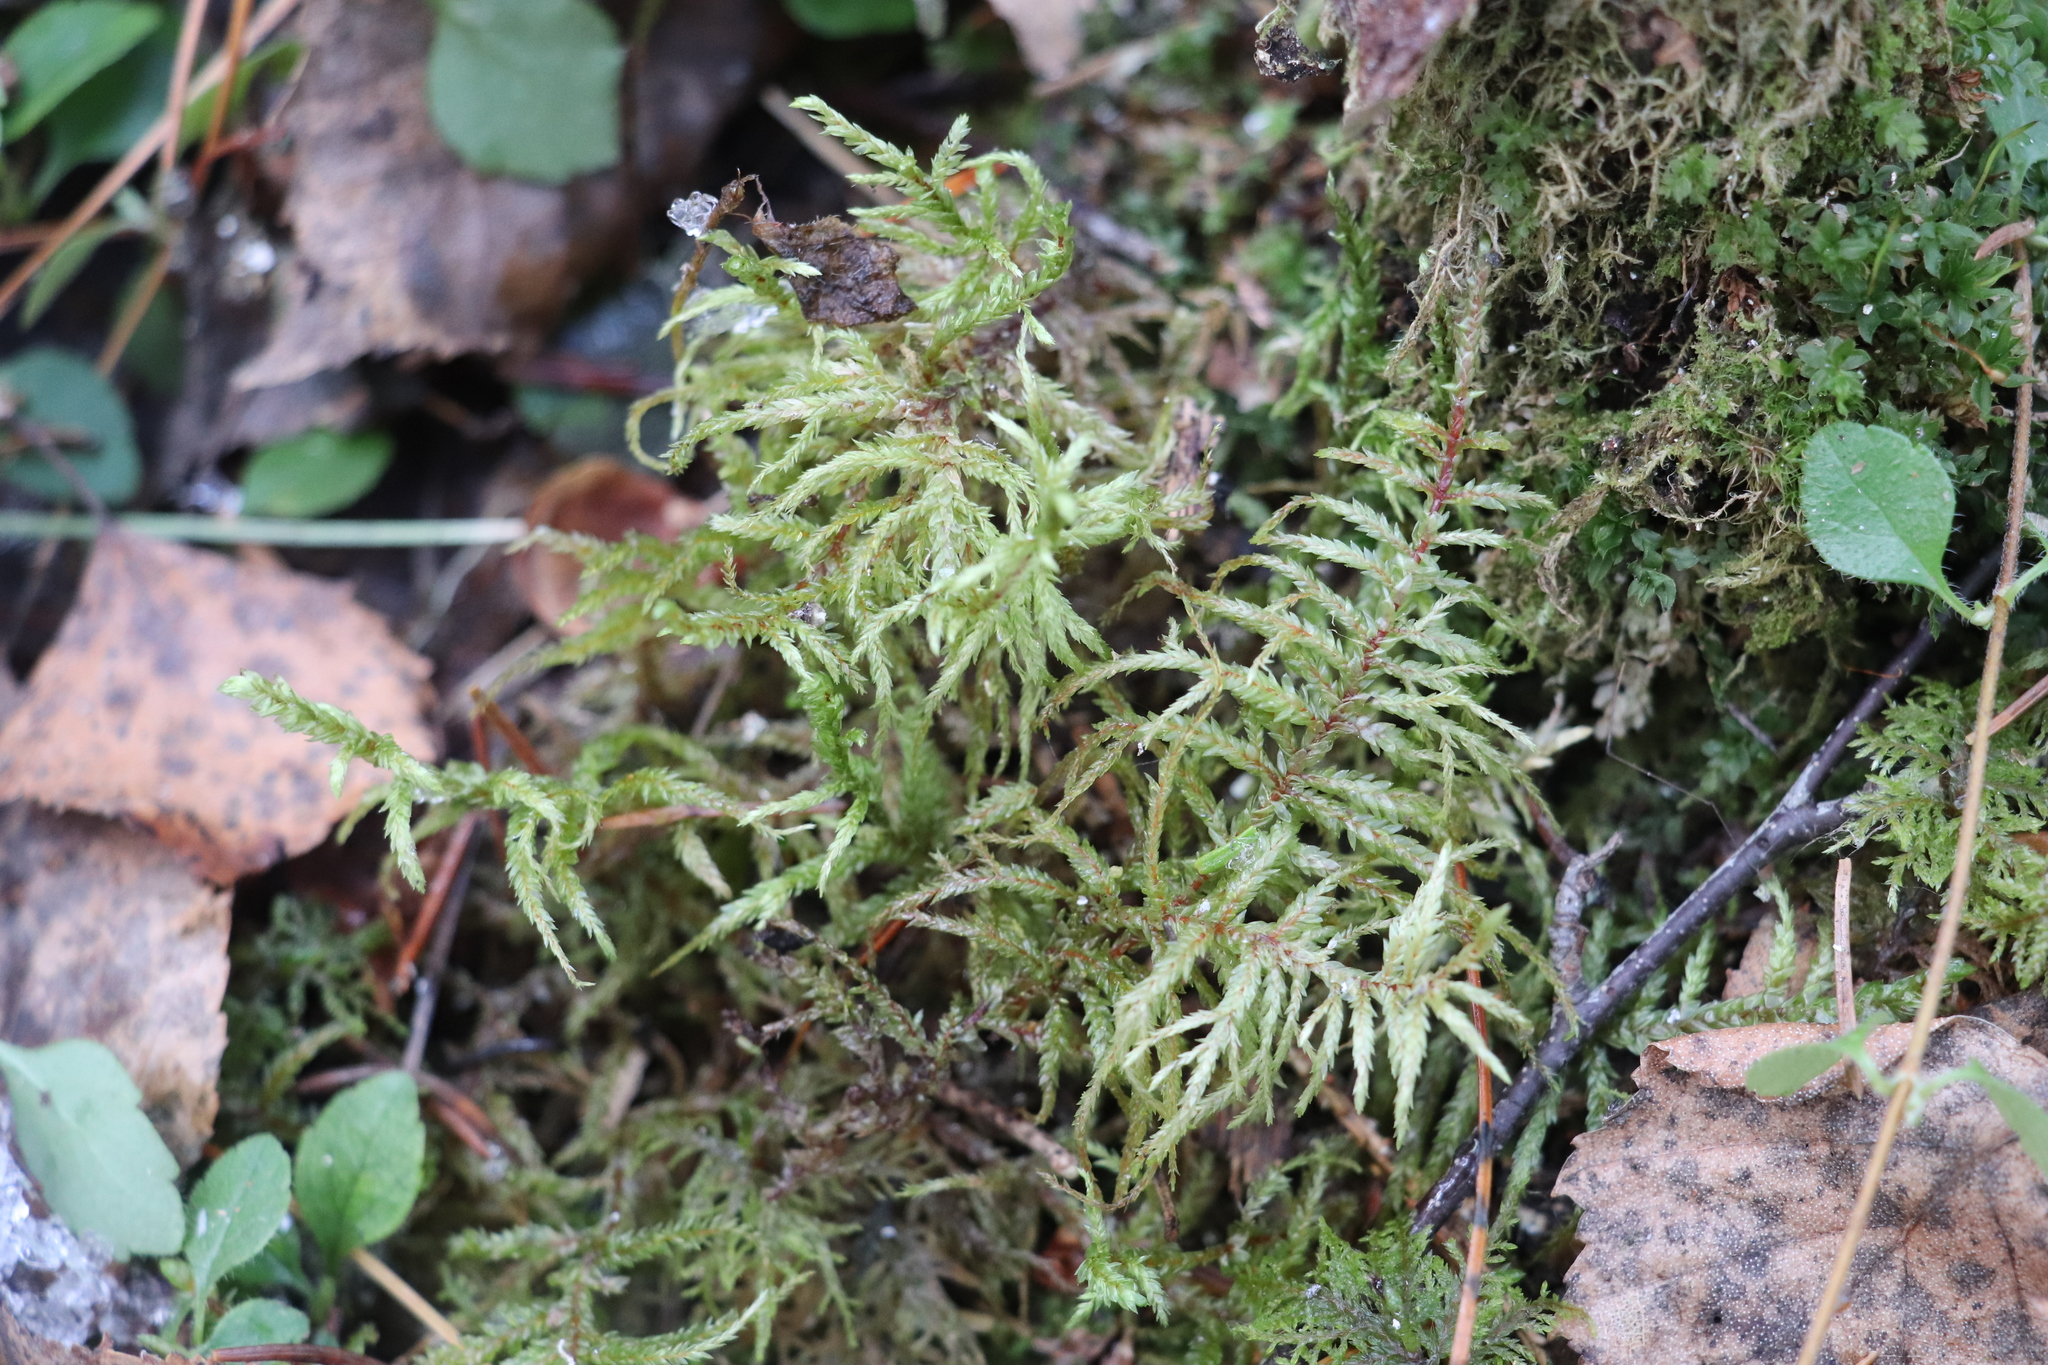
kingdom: Plantae
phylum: Bryophyta
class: Bryopsida
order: Hypnales
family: Hylocomiaceae
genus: Pleurozium
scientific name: Pleurozium schreberi
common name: Red-stemmed feather moss
